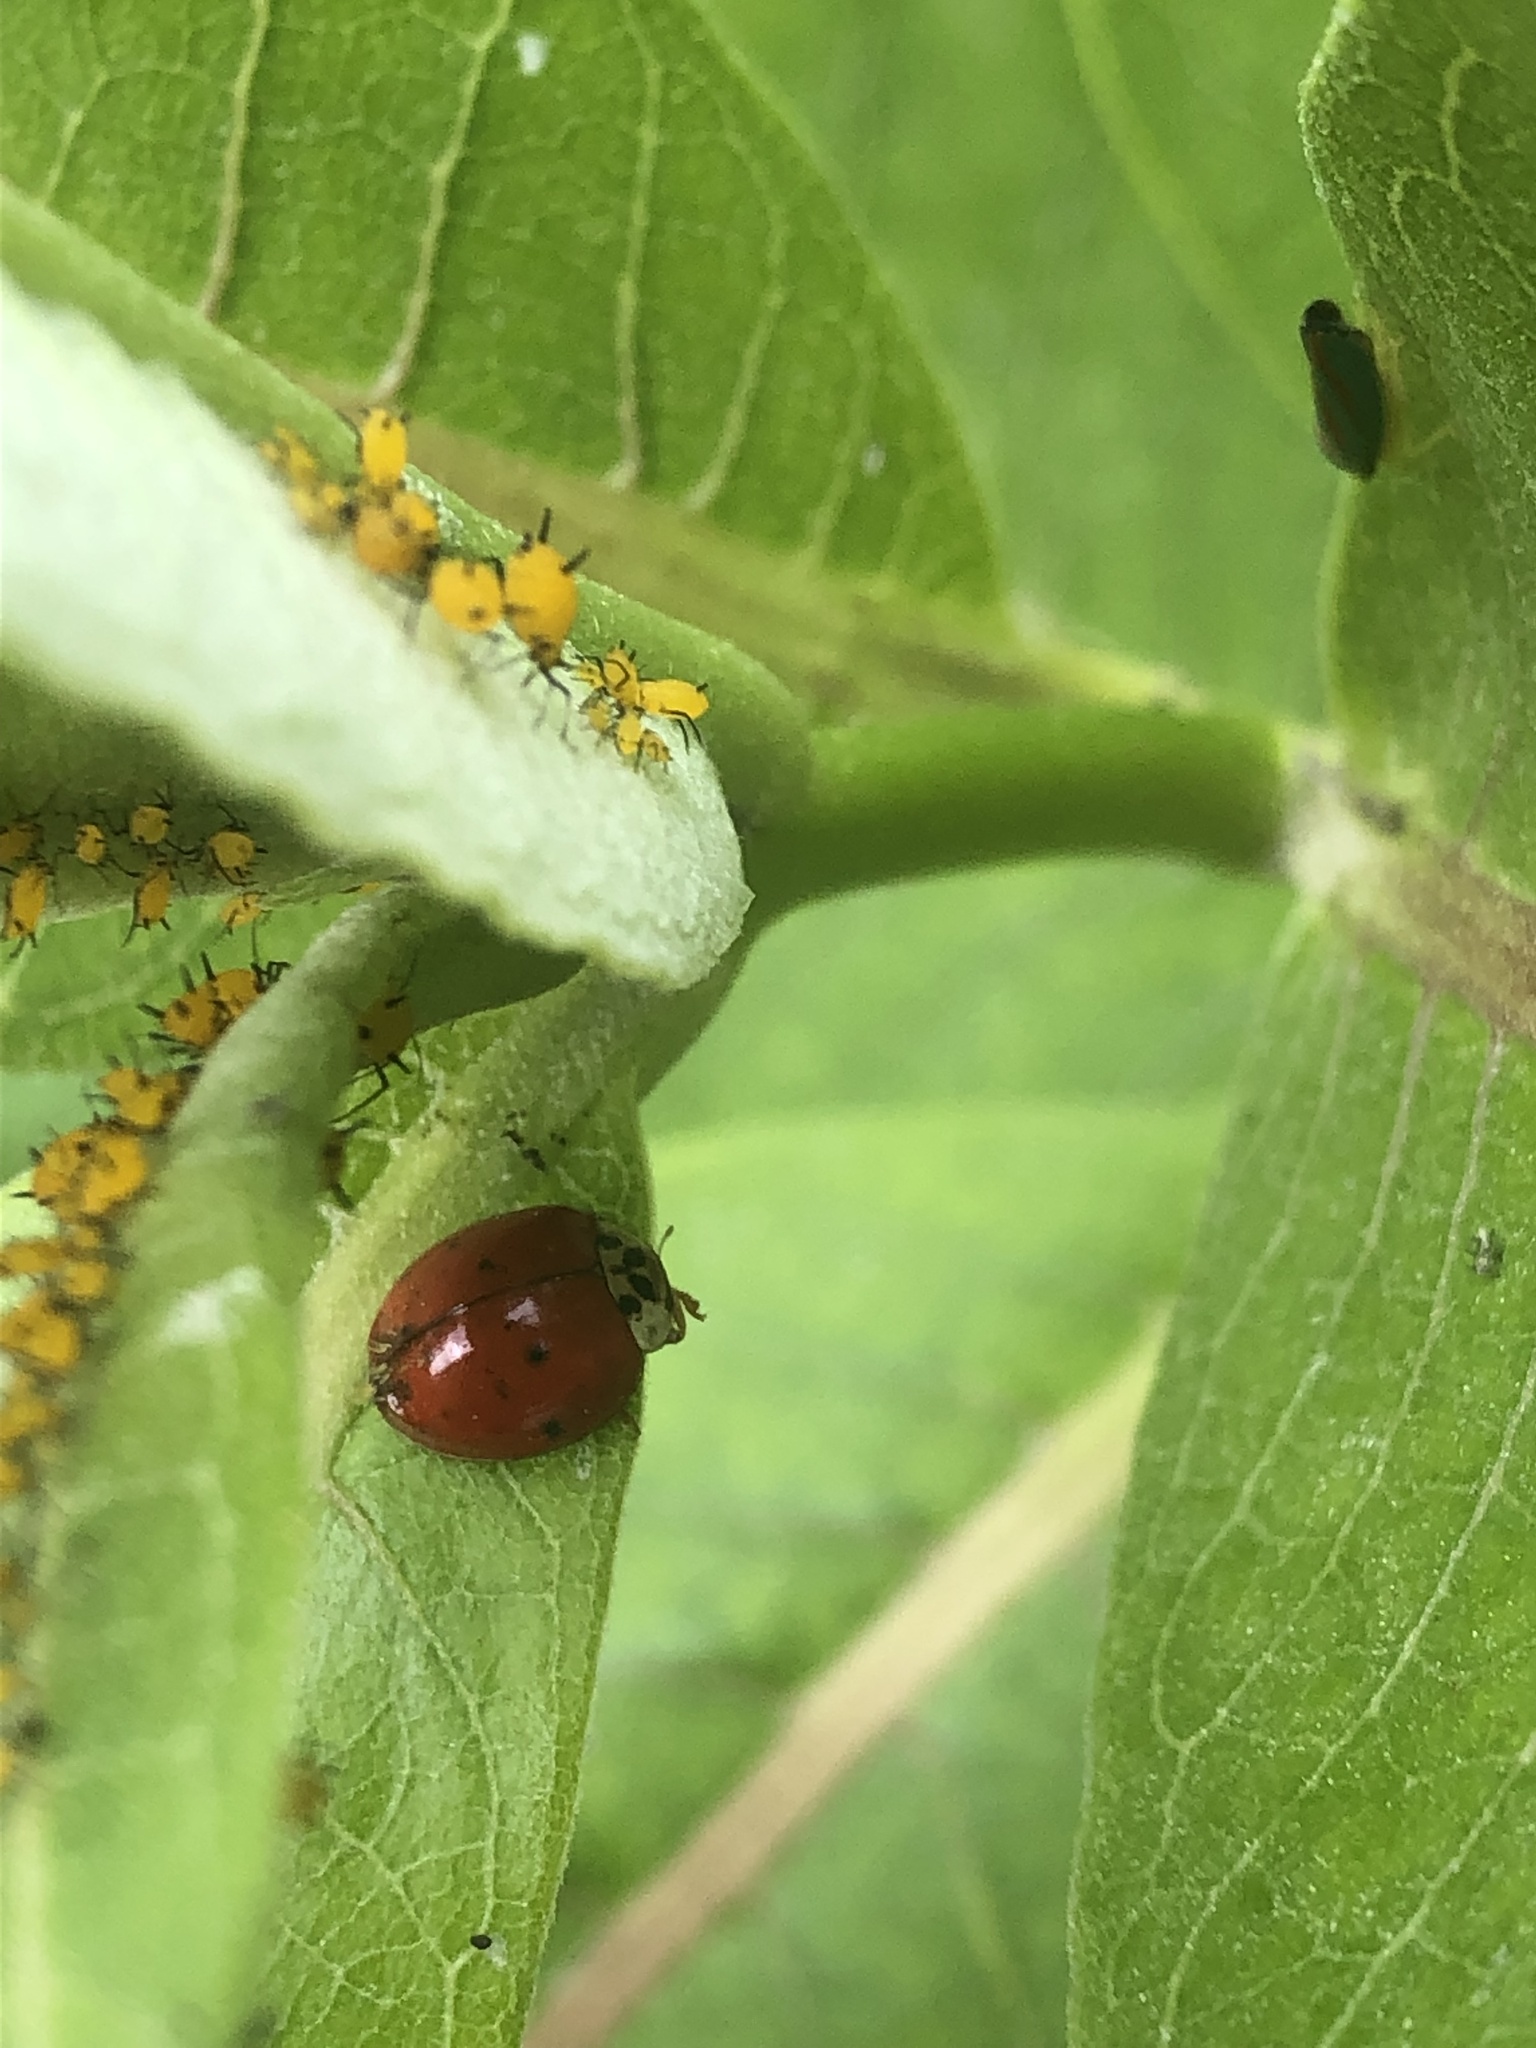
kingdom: Animalia
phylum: Arthropoda
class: Insecta
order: Coleoptera
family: Coccinellidae
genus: Harmonia
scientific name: Harmonia axyridis
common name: Harlequin ladybird
